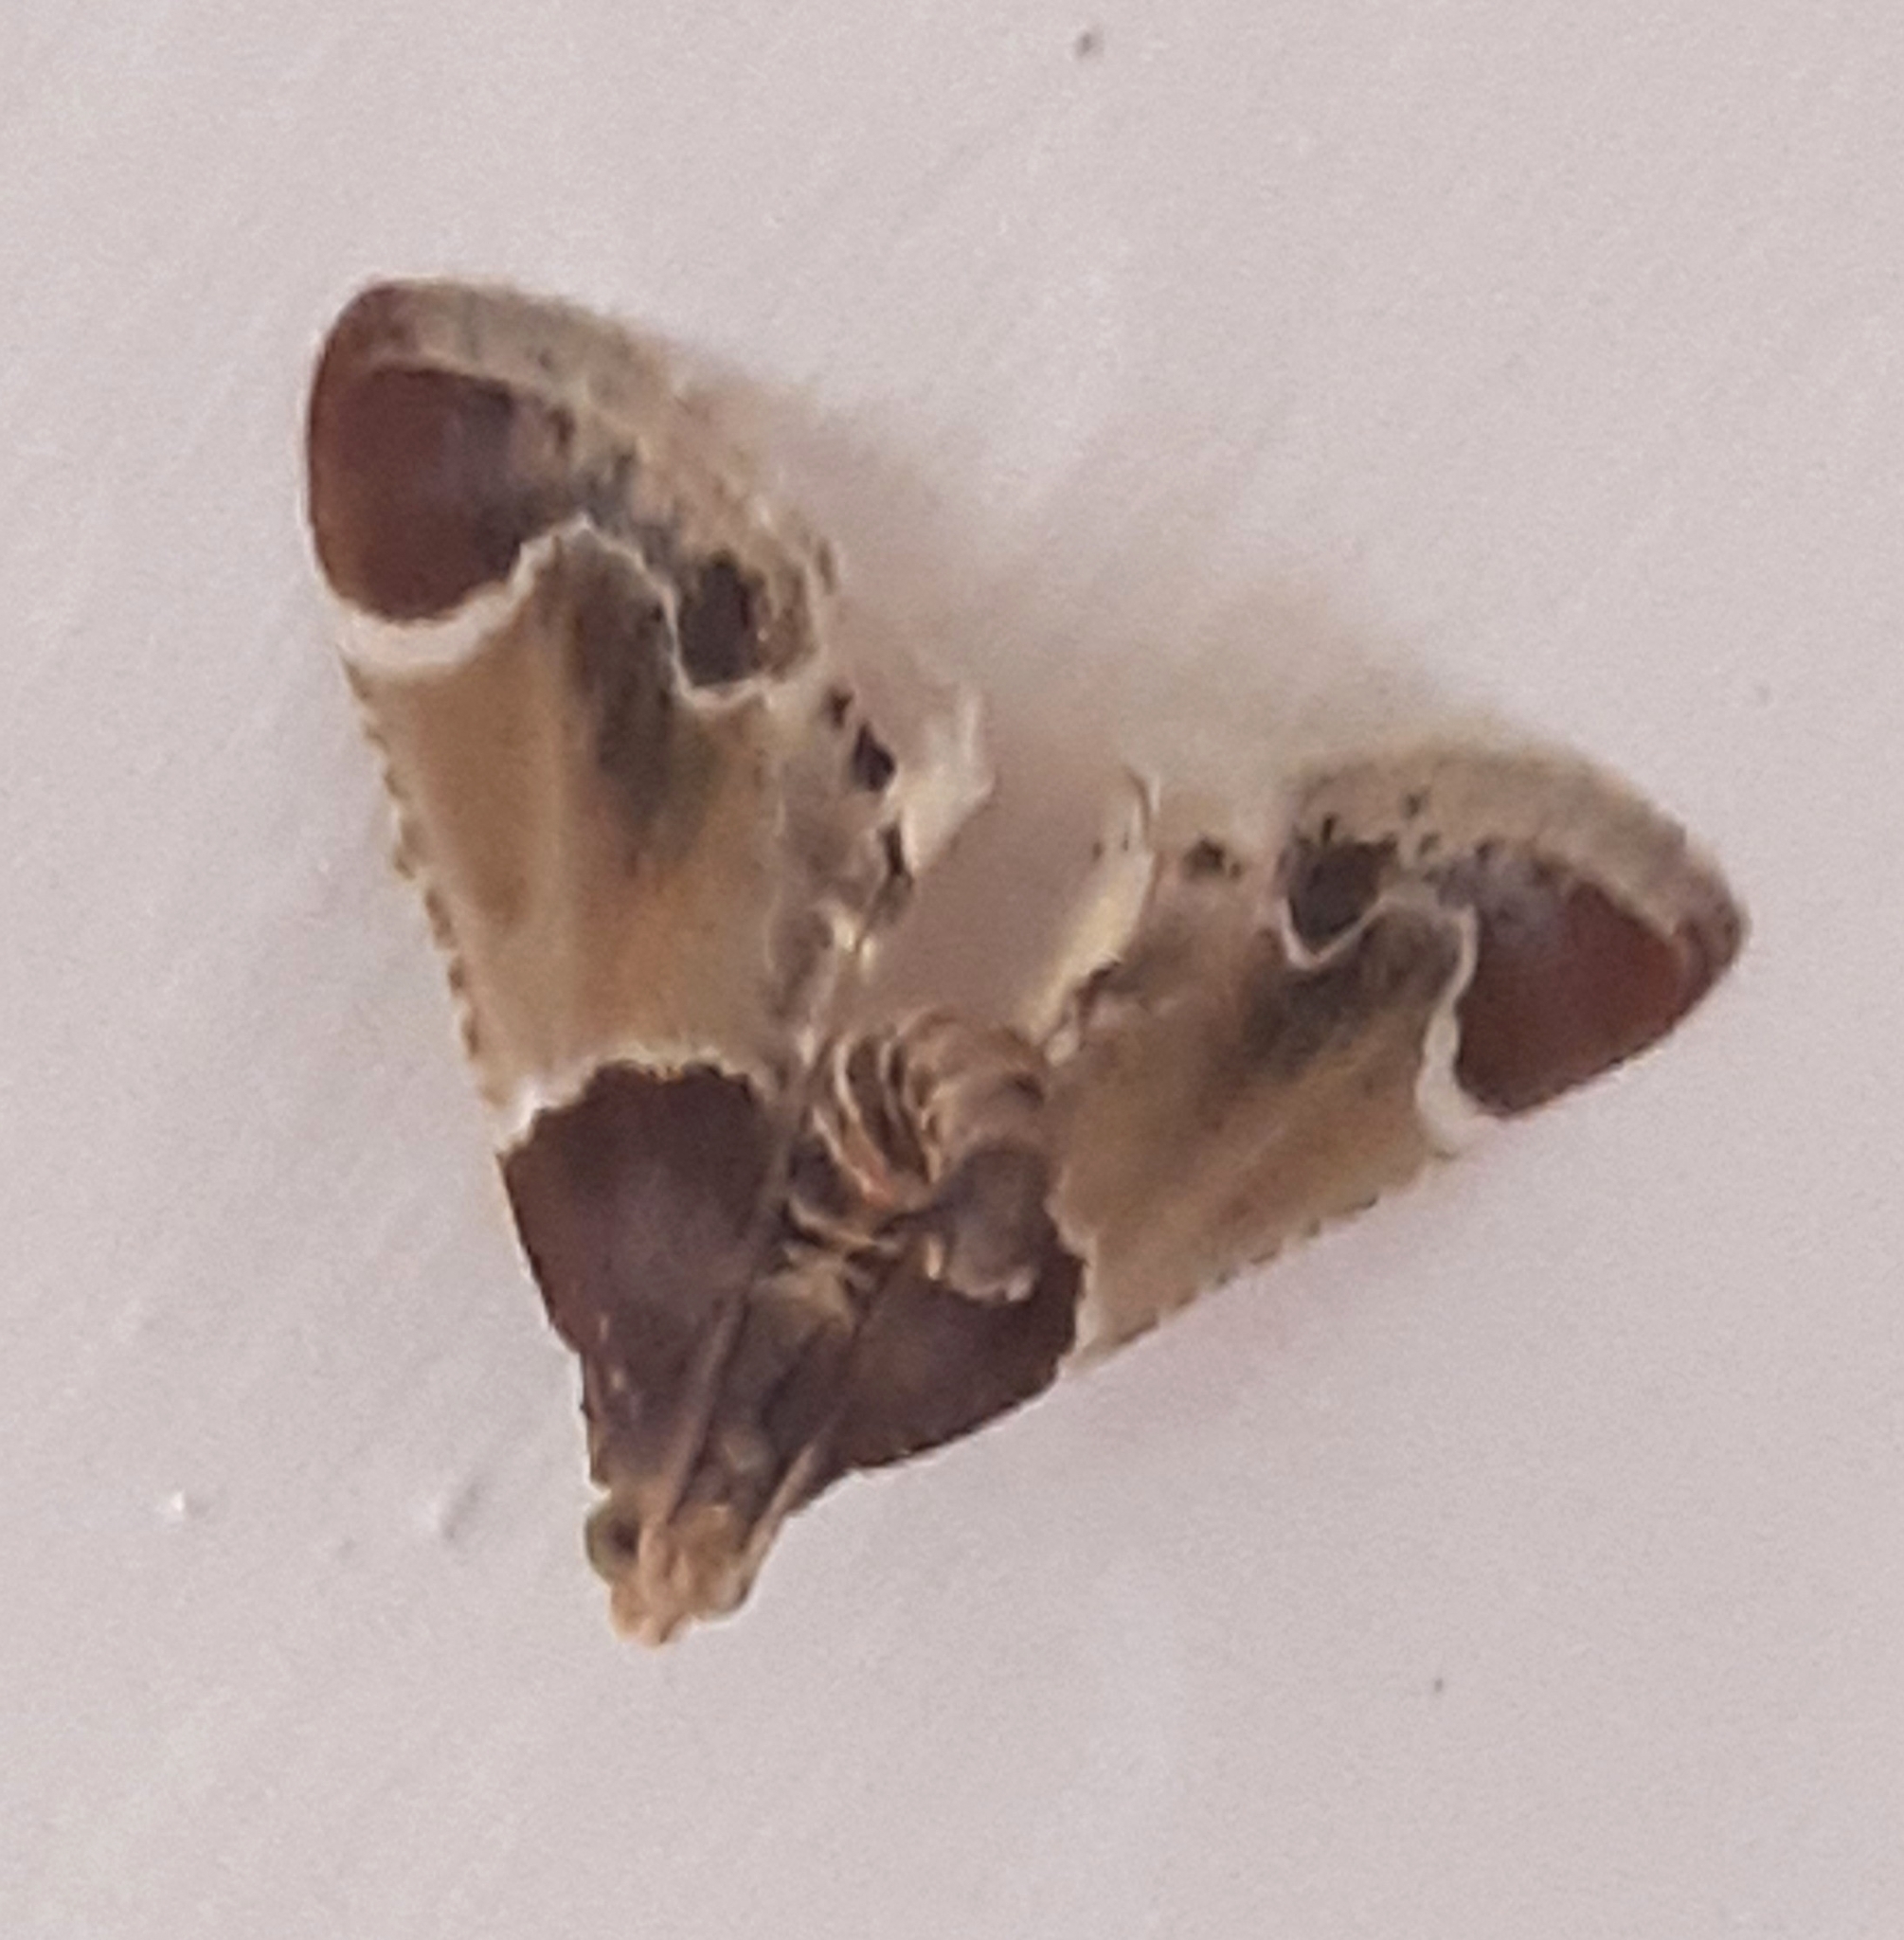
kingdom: Animalia
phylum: Arthropoda
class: Insecta
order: Lepidoptera
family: Pyralidae
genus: Pyralis
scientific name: Pyralis farinalis
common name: Meal moth
